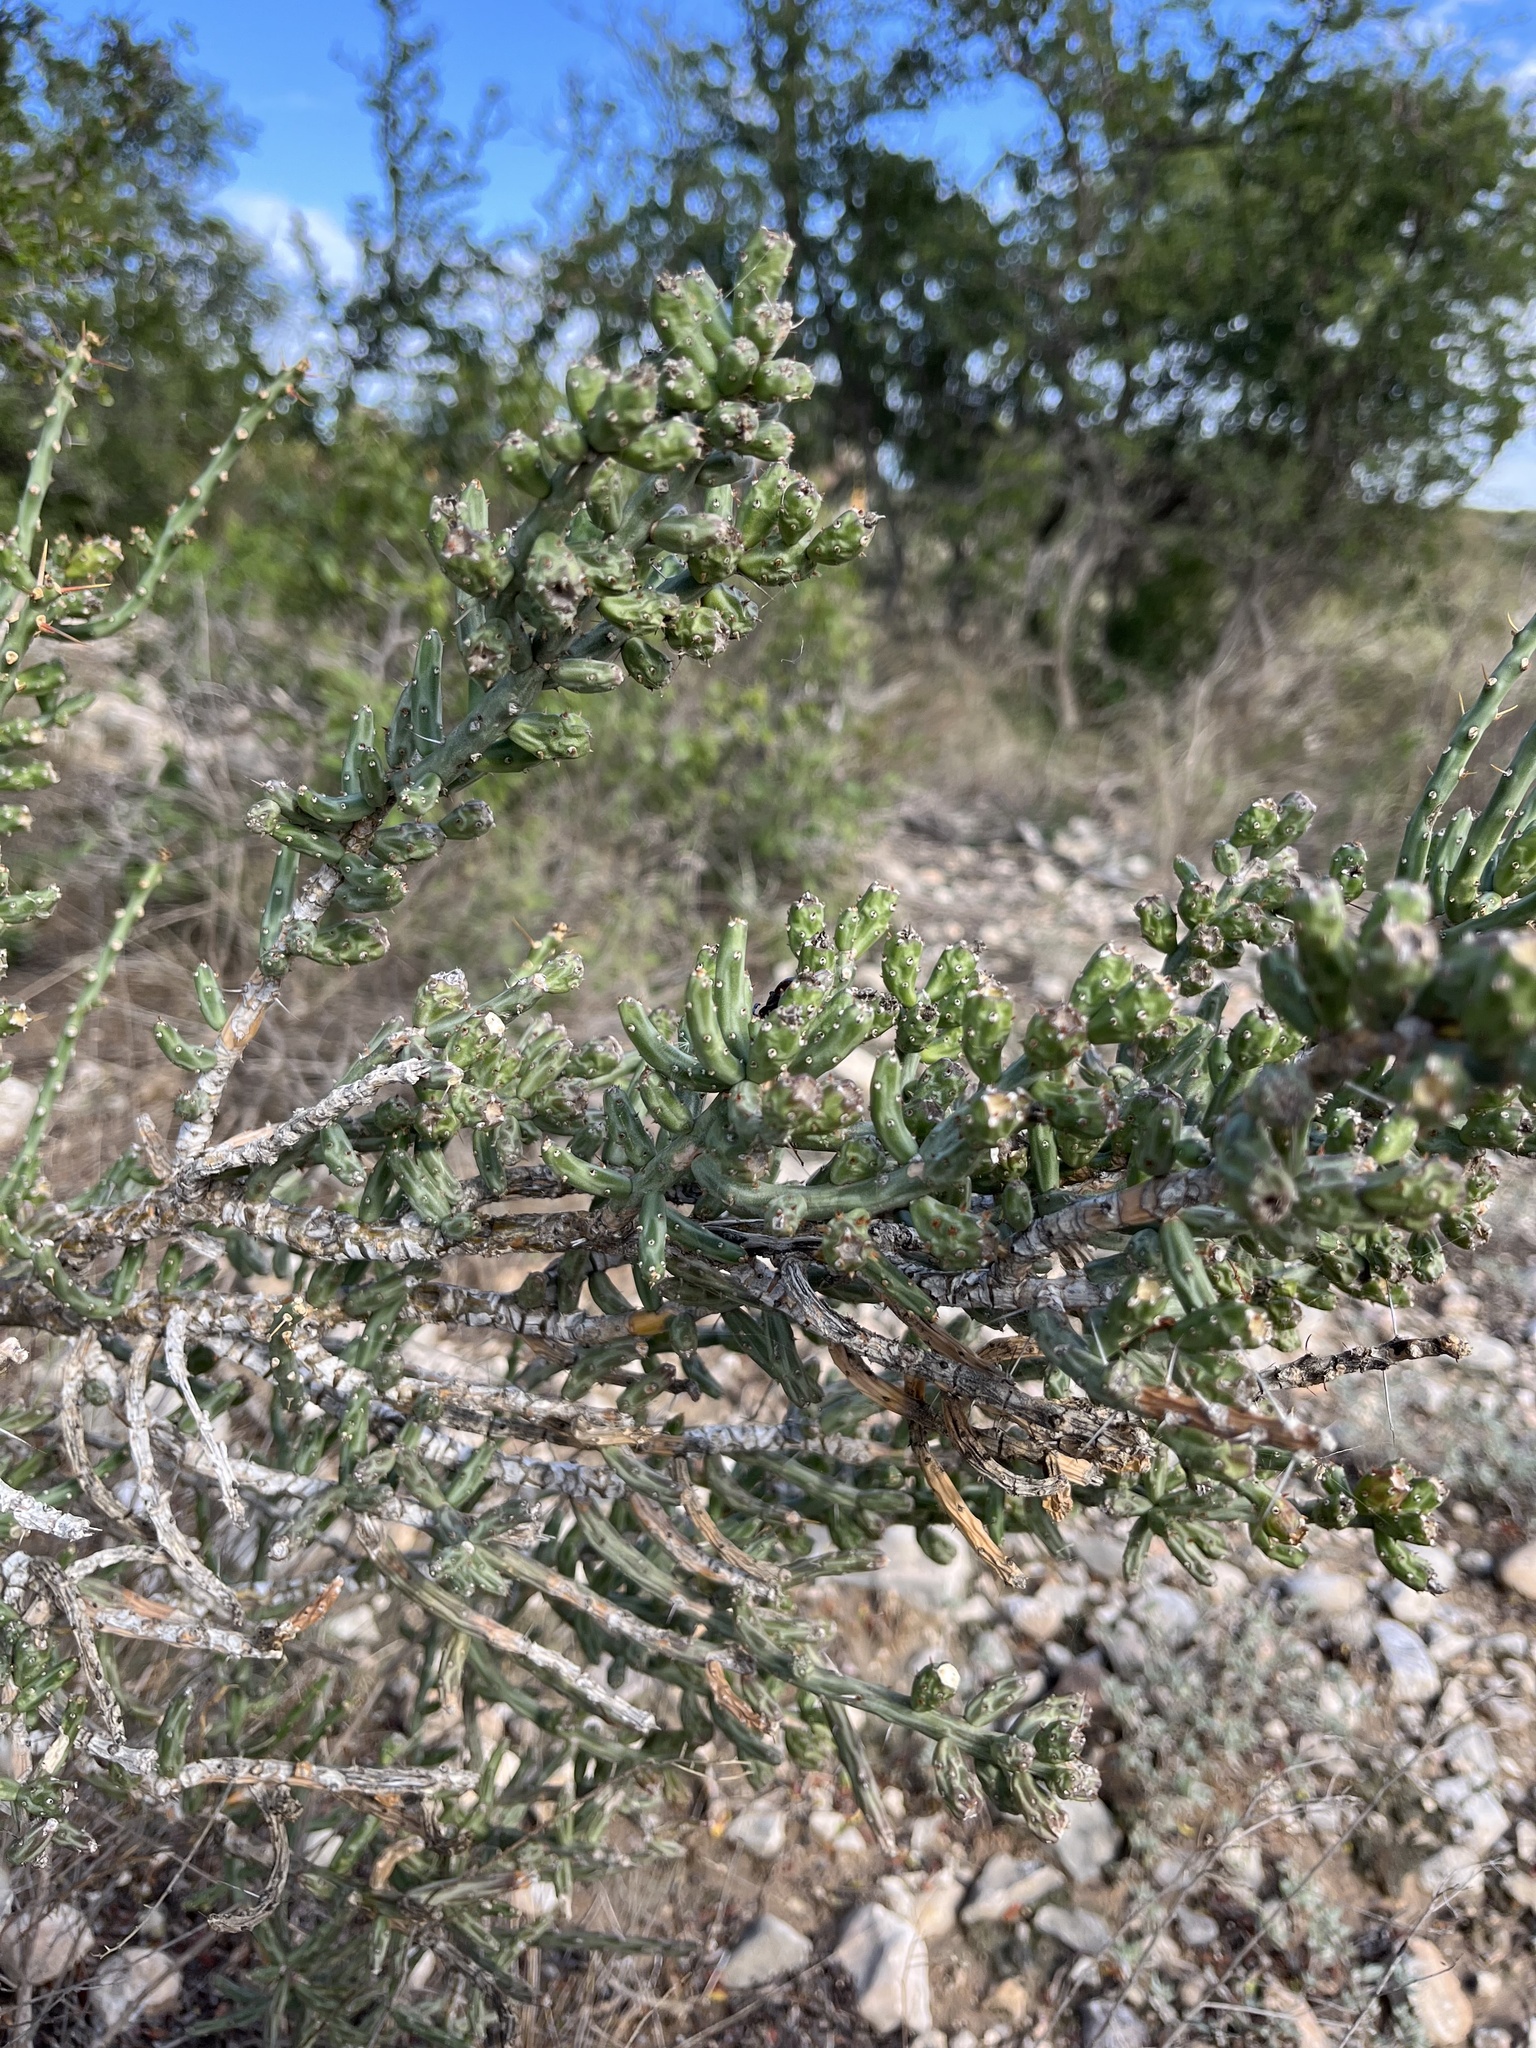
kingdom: Plantae
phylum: Tracheophyta
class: Magnoliopsida
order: Caryophyllales
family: Cactaceae
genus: Cylindropuntia
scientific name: Cylindropuntia leptocaulis
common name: Christmas cactus
